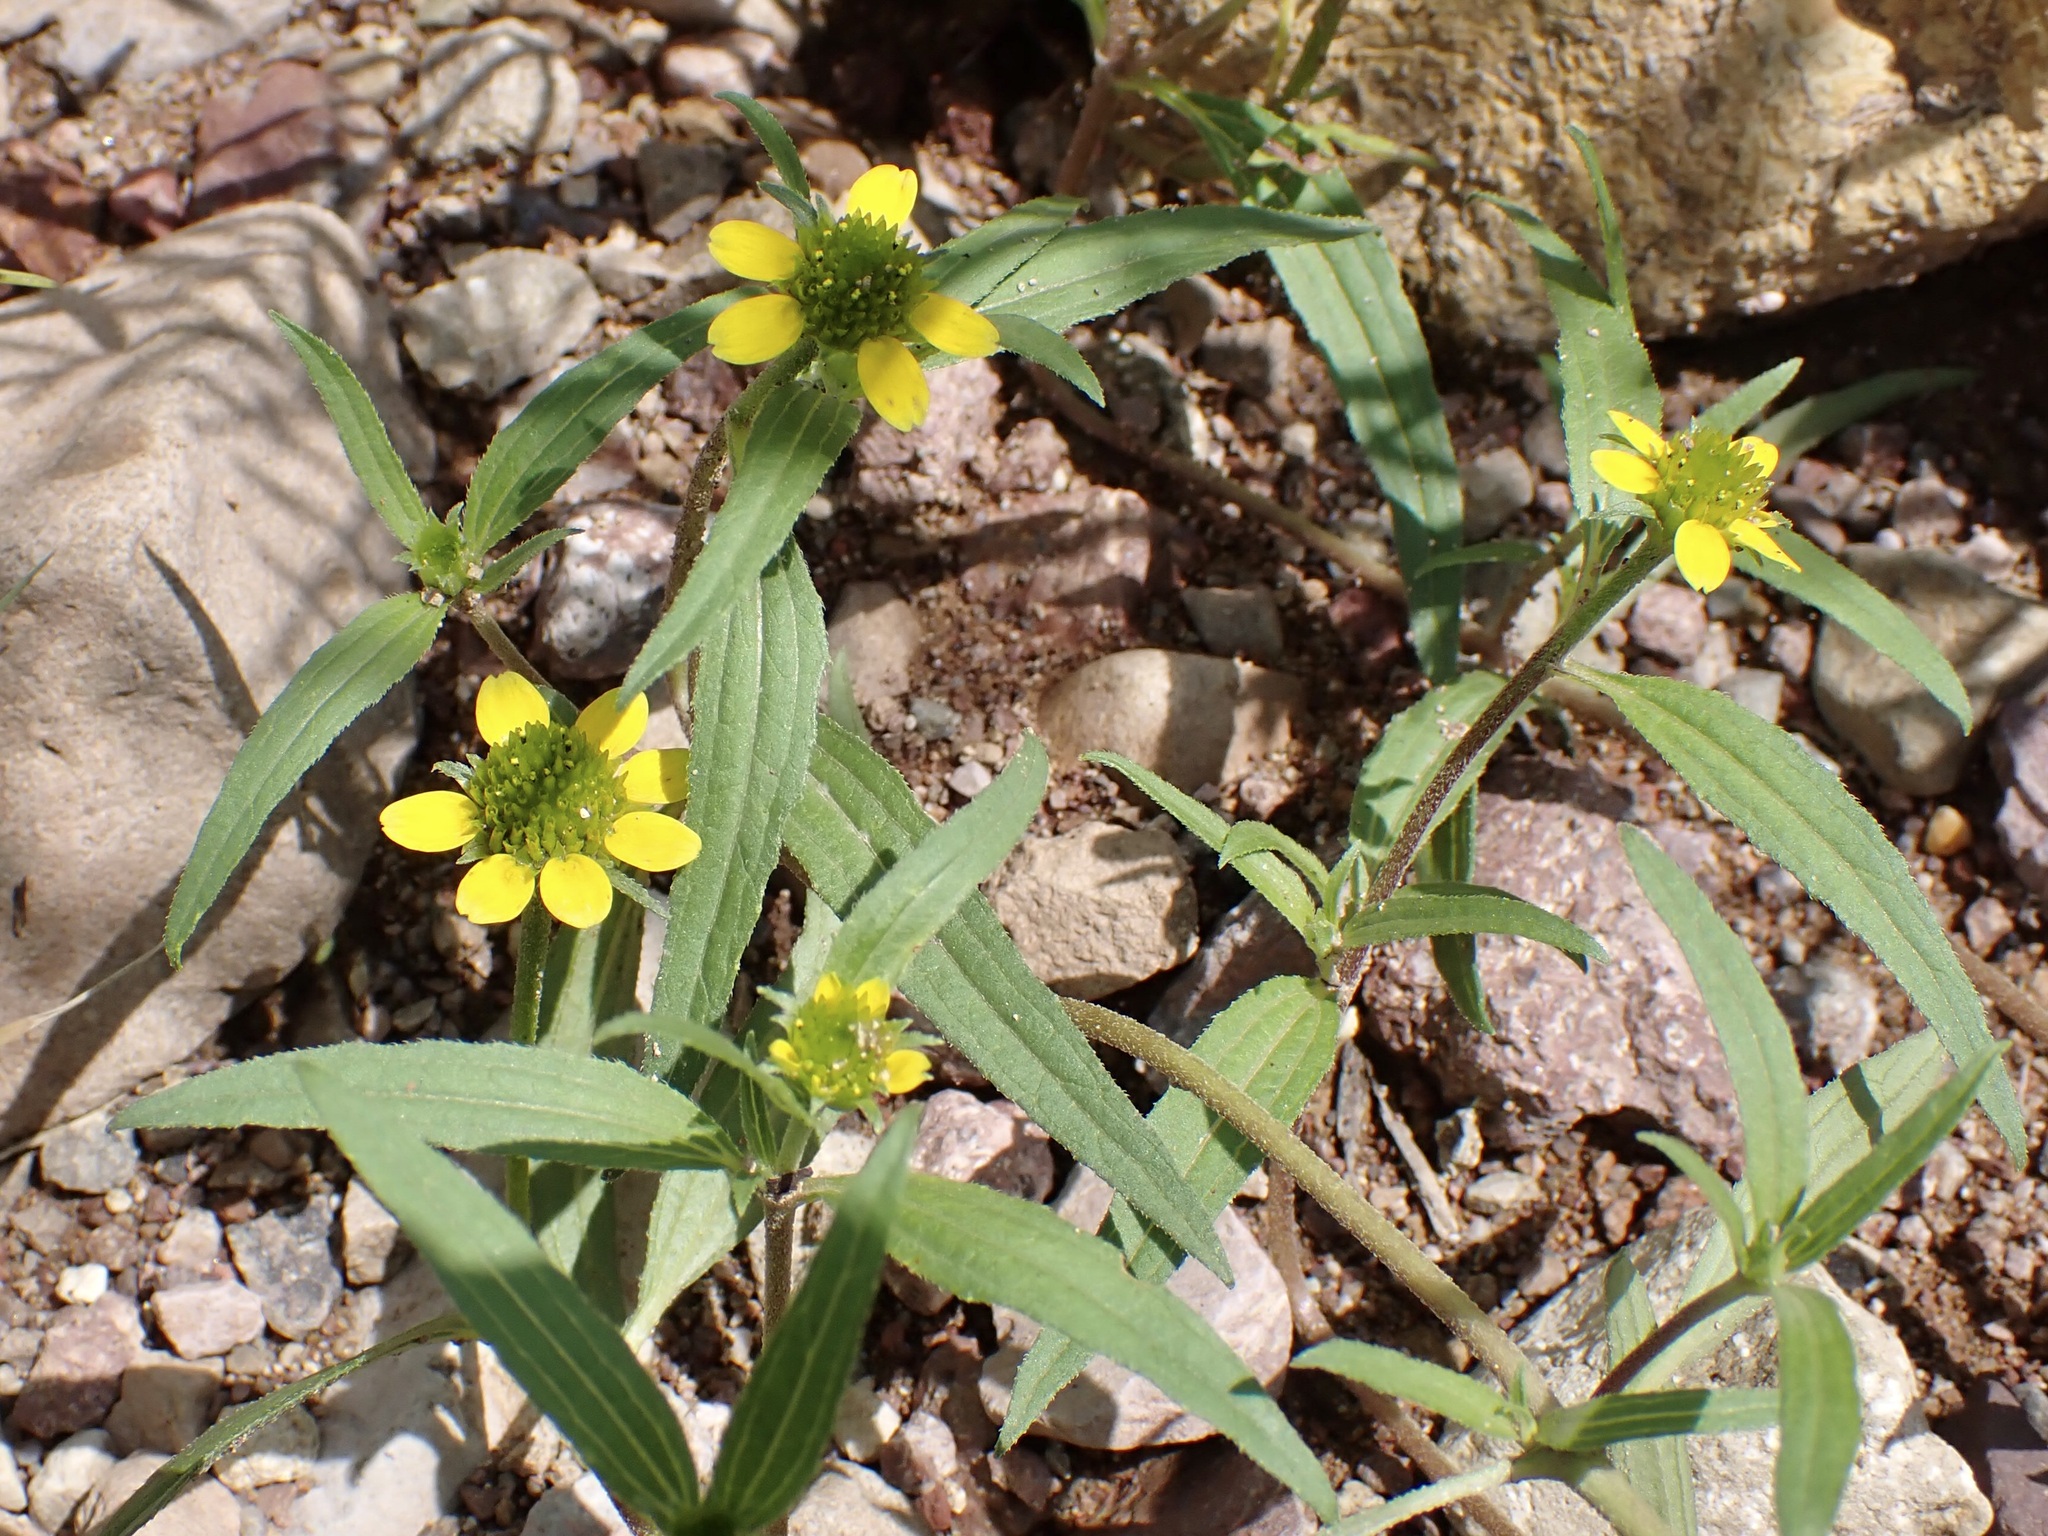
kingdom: Plantae
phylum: Tracheophyta
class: Magnoliopsida
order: Asterales
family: Asteraceae
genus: Sanvitalia
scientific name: Sanvitalia abertii
